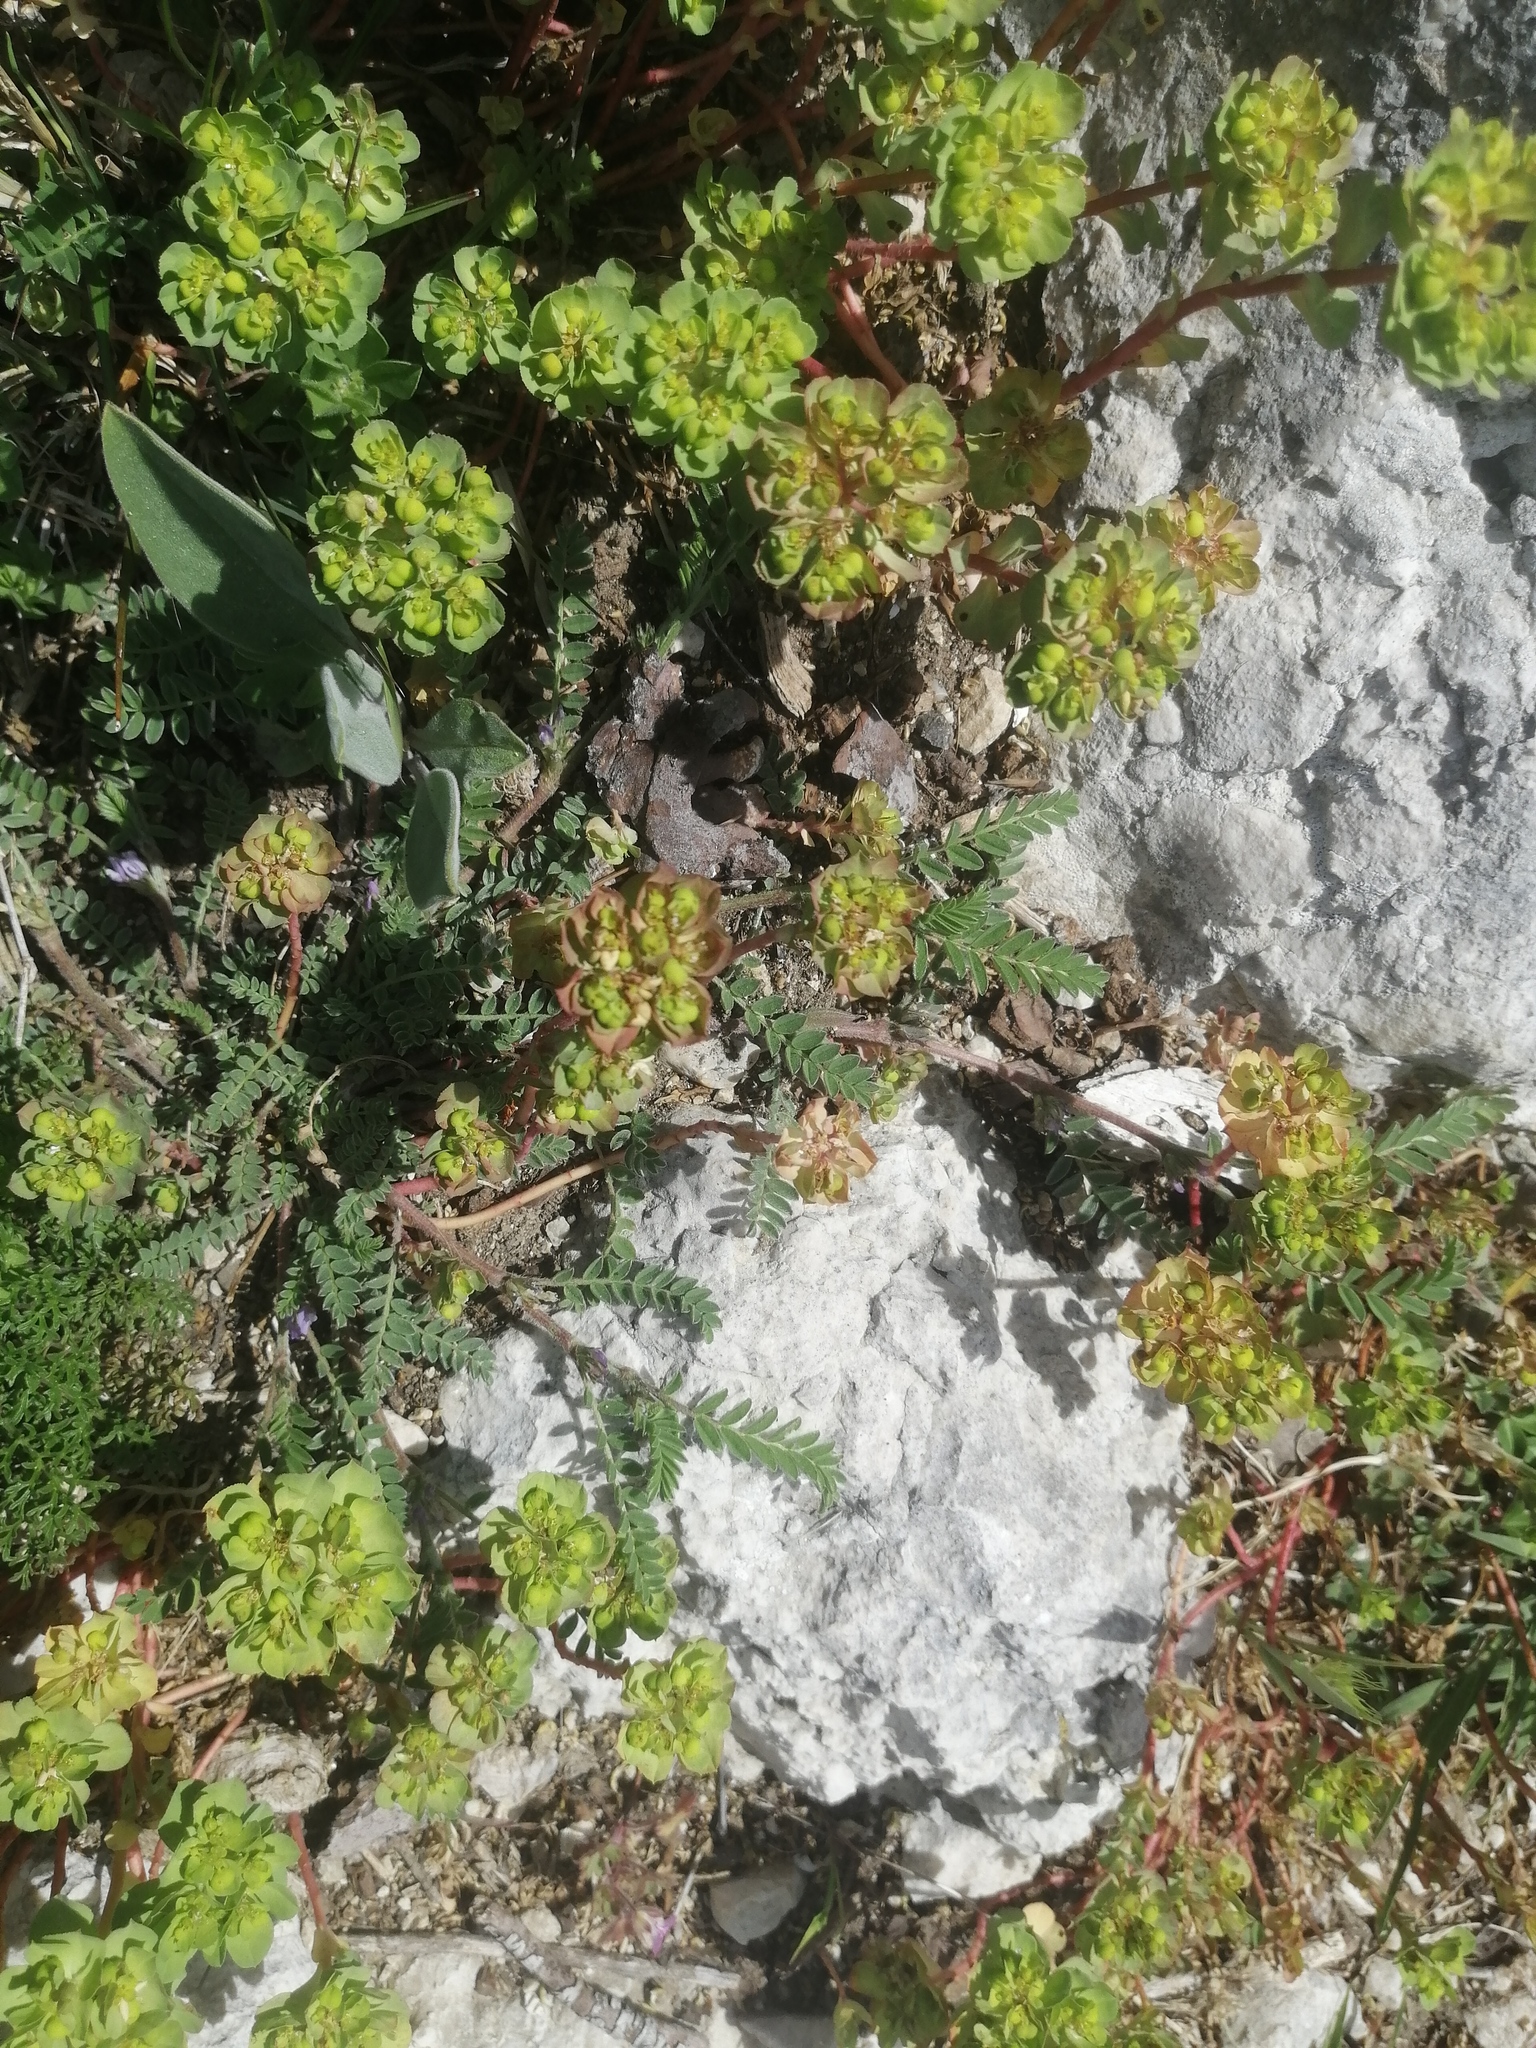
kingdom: Plantae
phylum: Tracheophyta
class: Magnoliopsida
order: Malpighiales
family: Euphorbiaceae
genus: Euphorbia
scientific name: Euphorbia helioscopia
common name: Sun spurge
